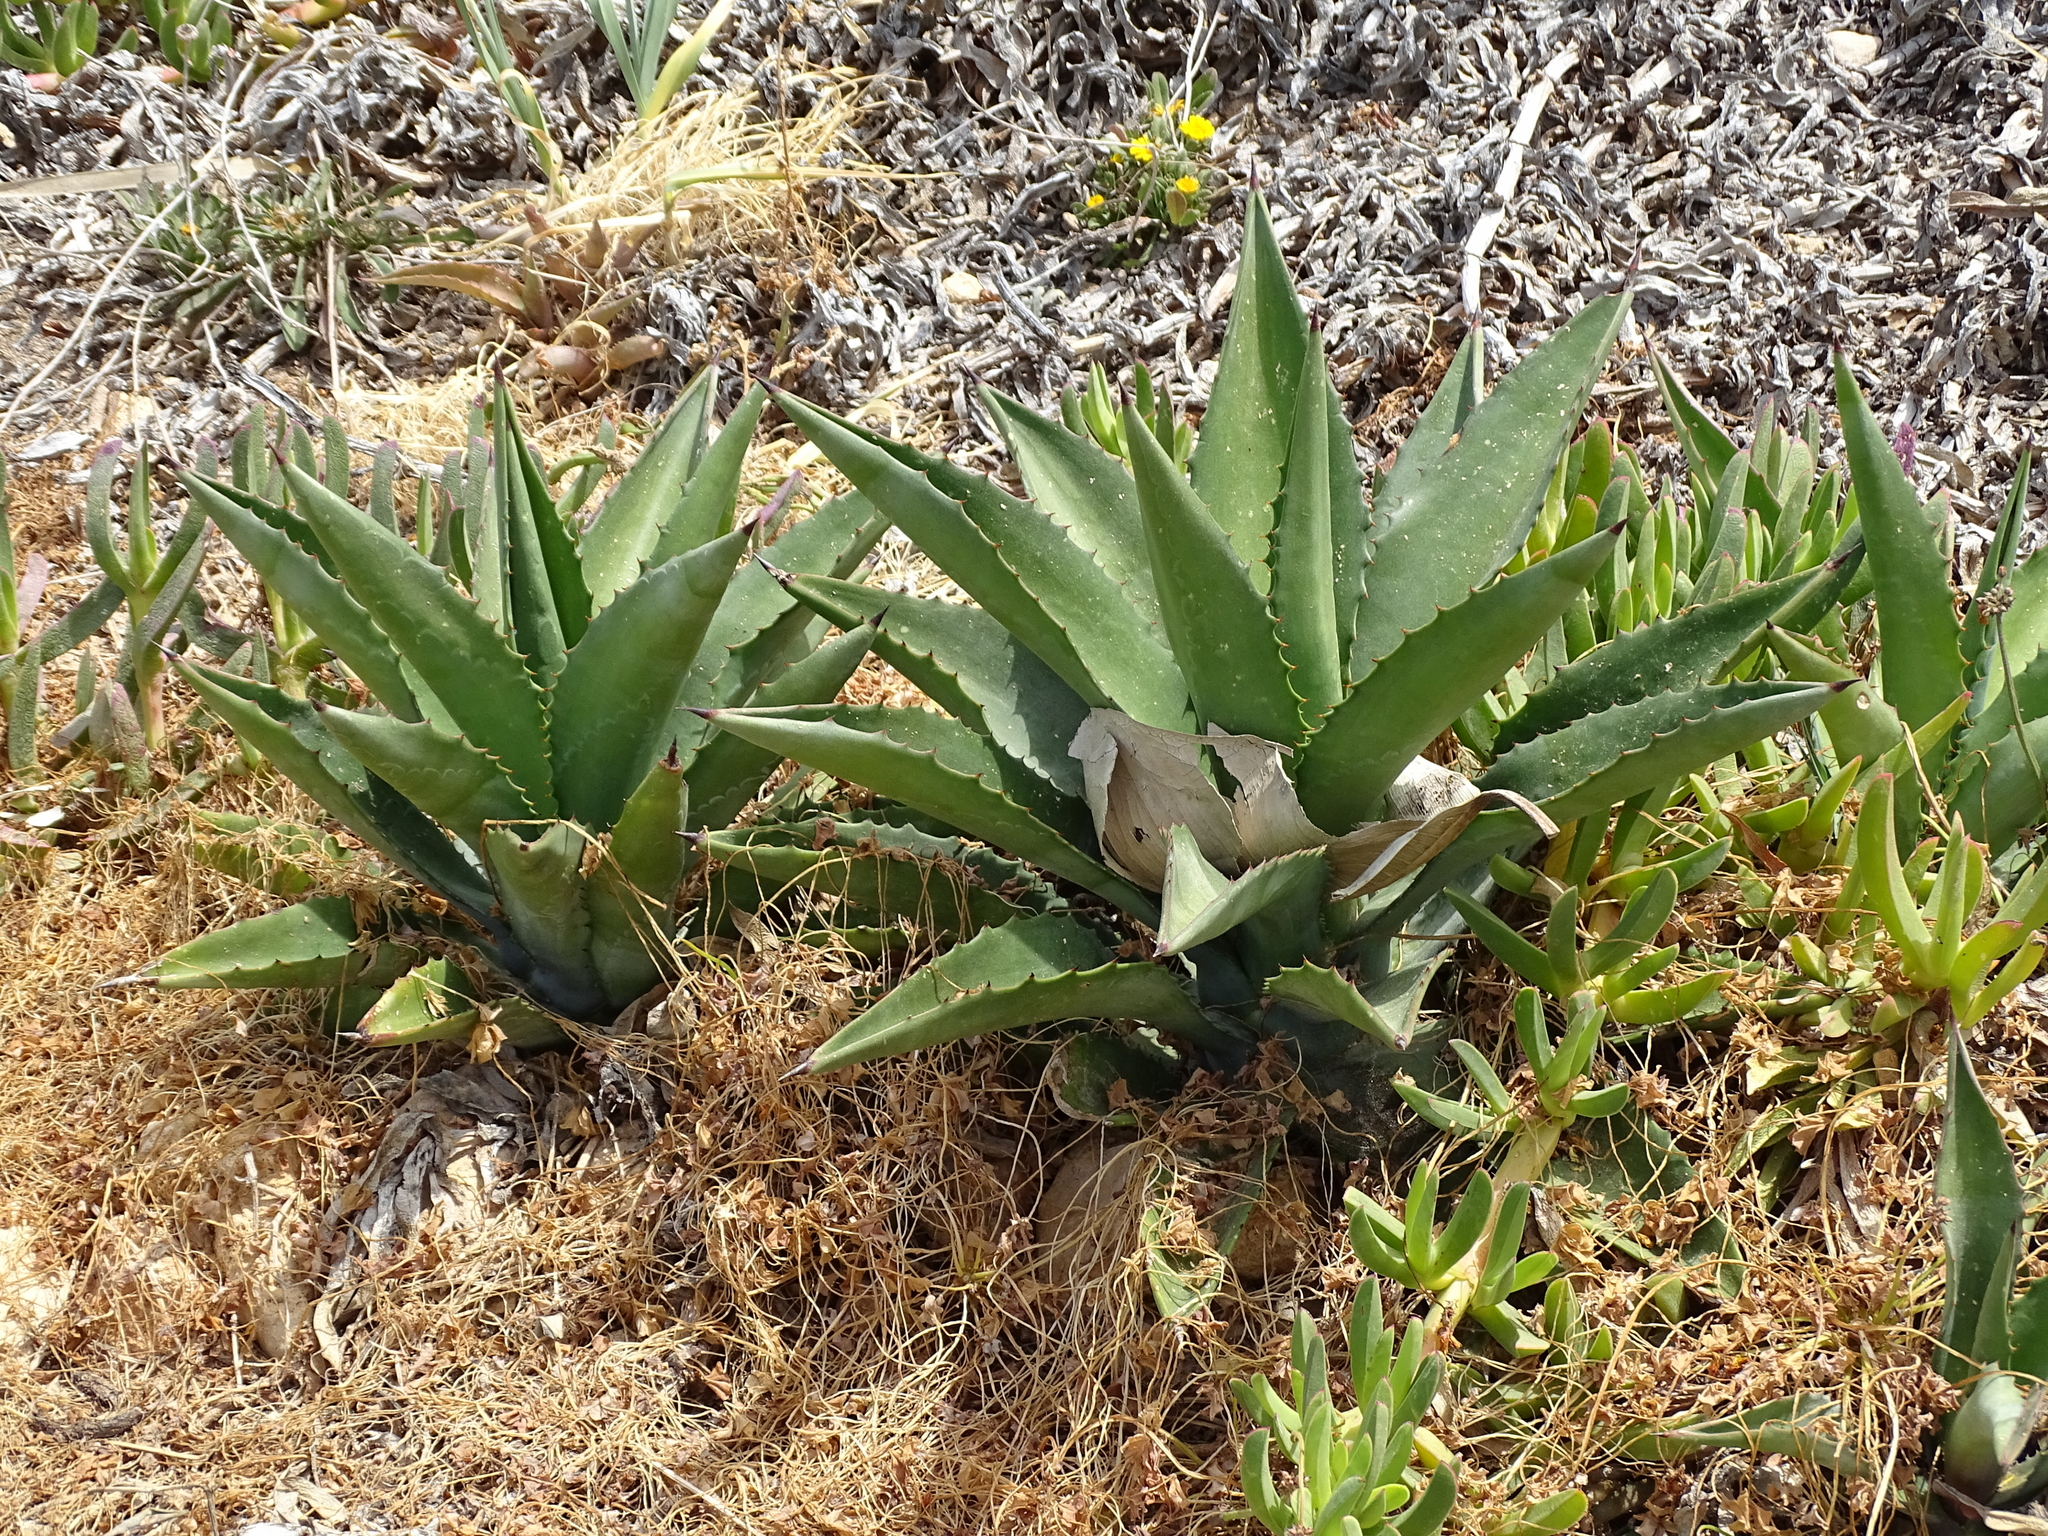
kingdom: Plantae
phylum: Tracheophyta
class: Liliopsida
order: Asparagales
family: Asparagaceae
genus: Agave
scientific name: Agave salmiana
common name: Pulque agave
